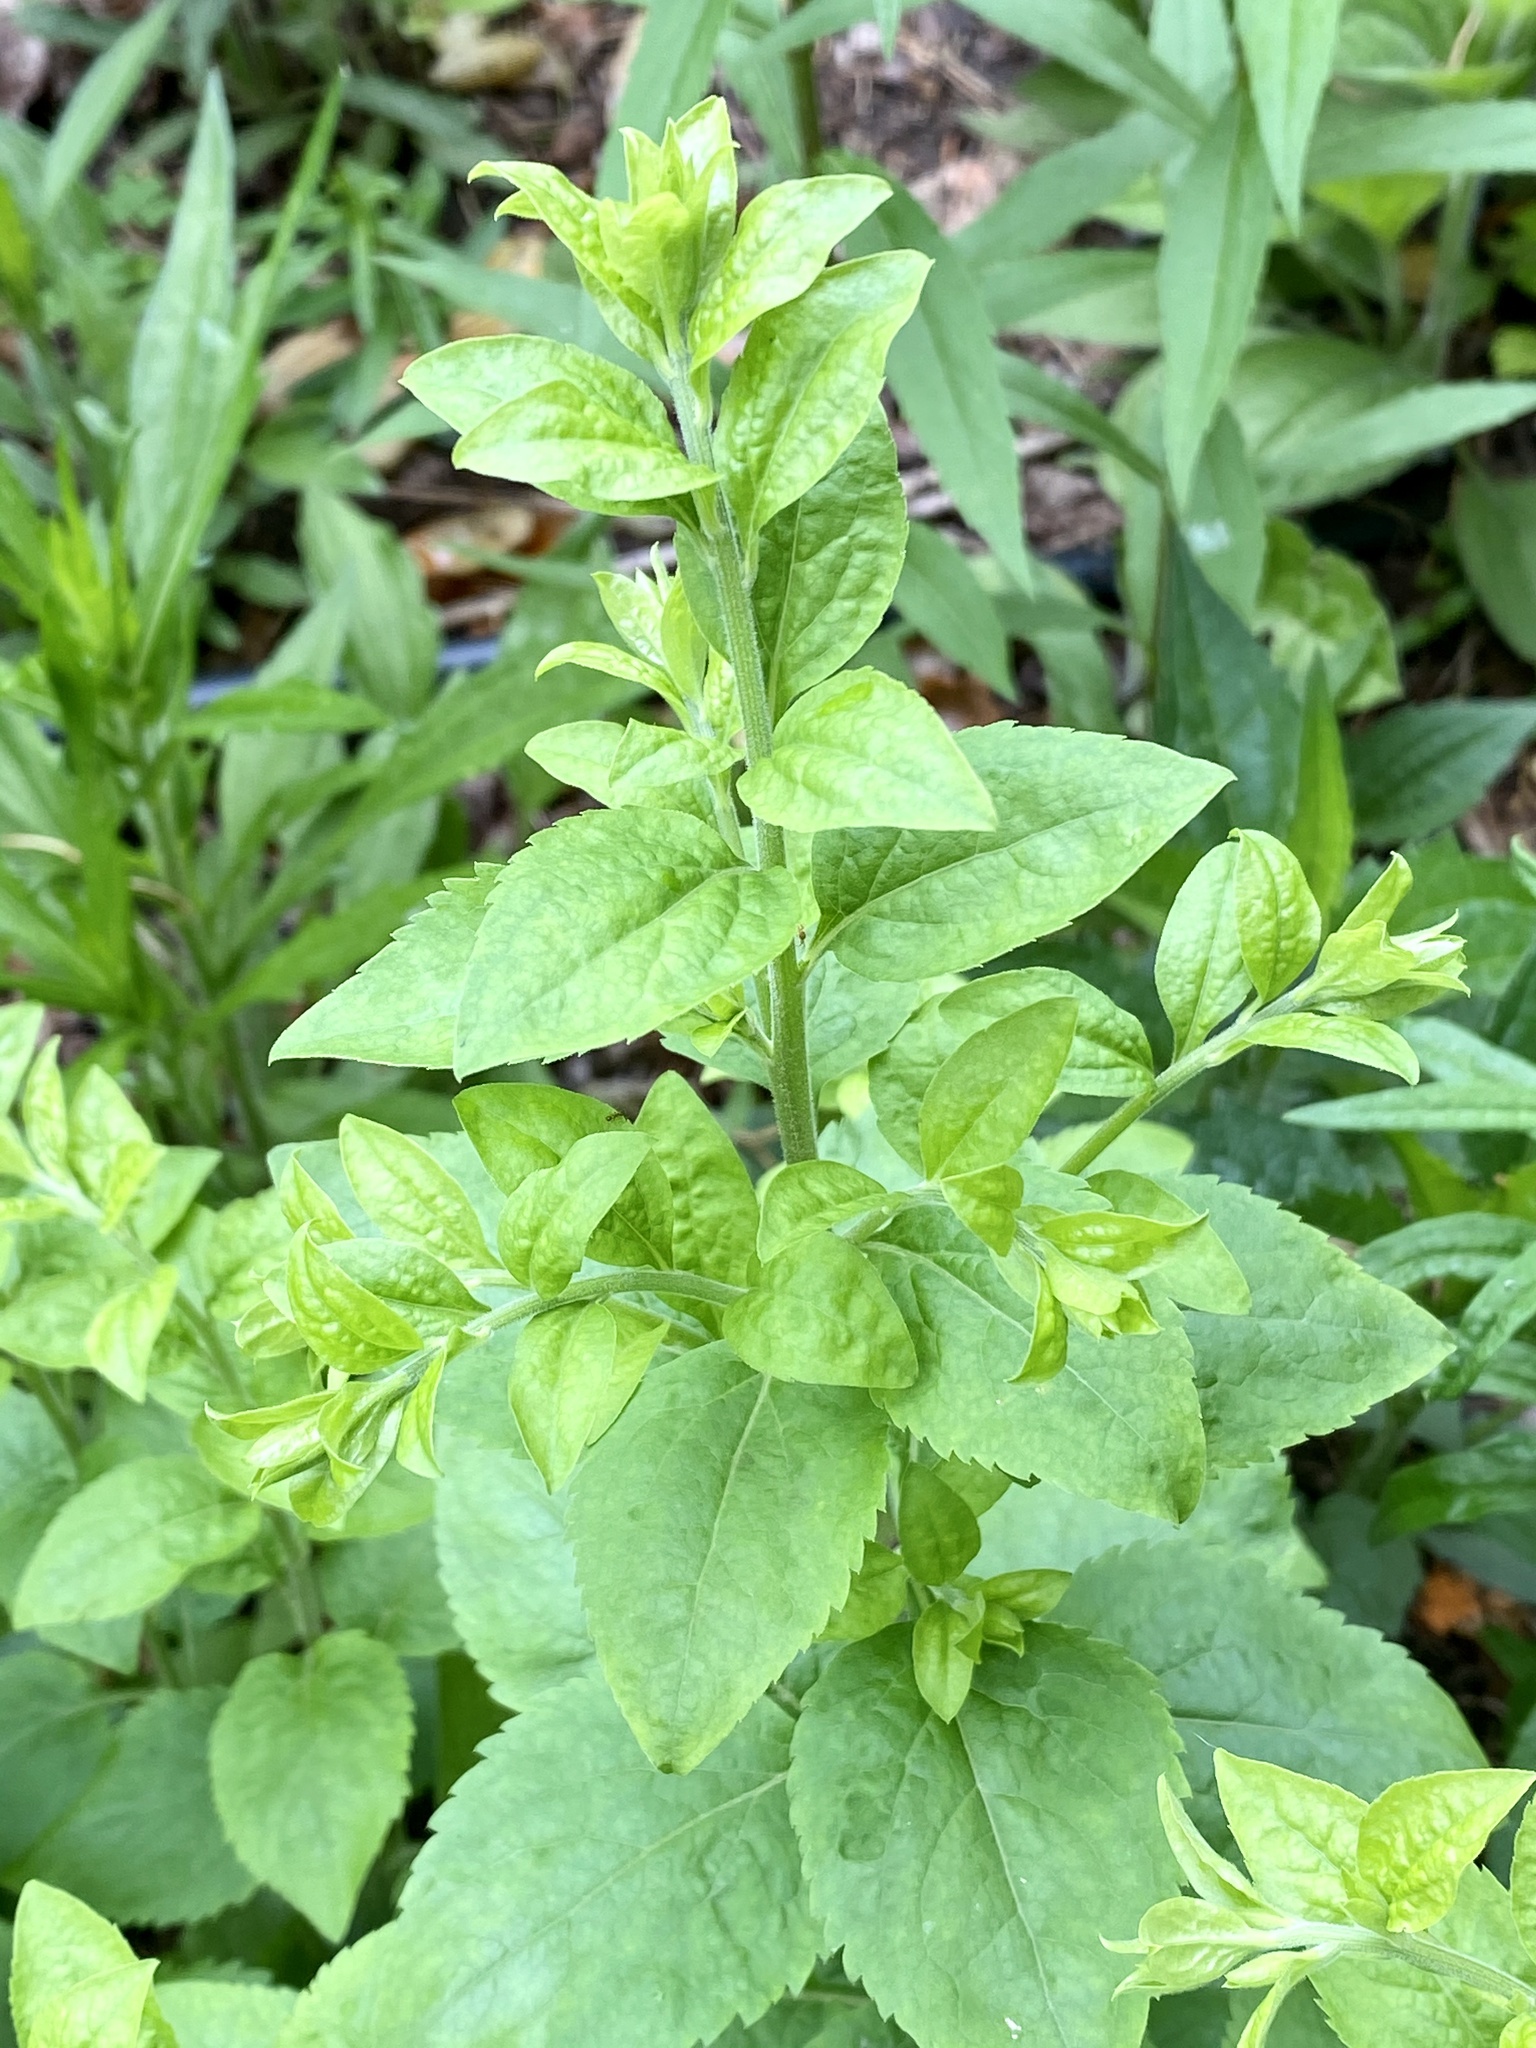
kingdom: Plantae
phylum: Tracheophyta
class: Magnoliopsida
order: Asterales
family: Campanulaceae
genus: Lobelia
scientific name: Lobelia inflata
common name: Indian tobacco
